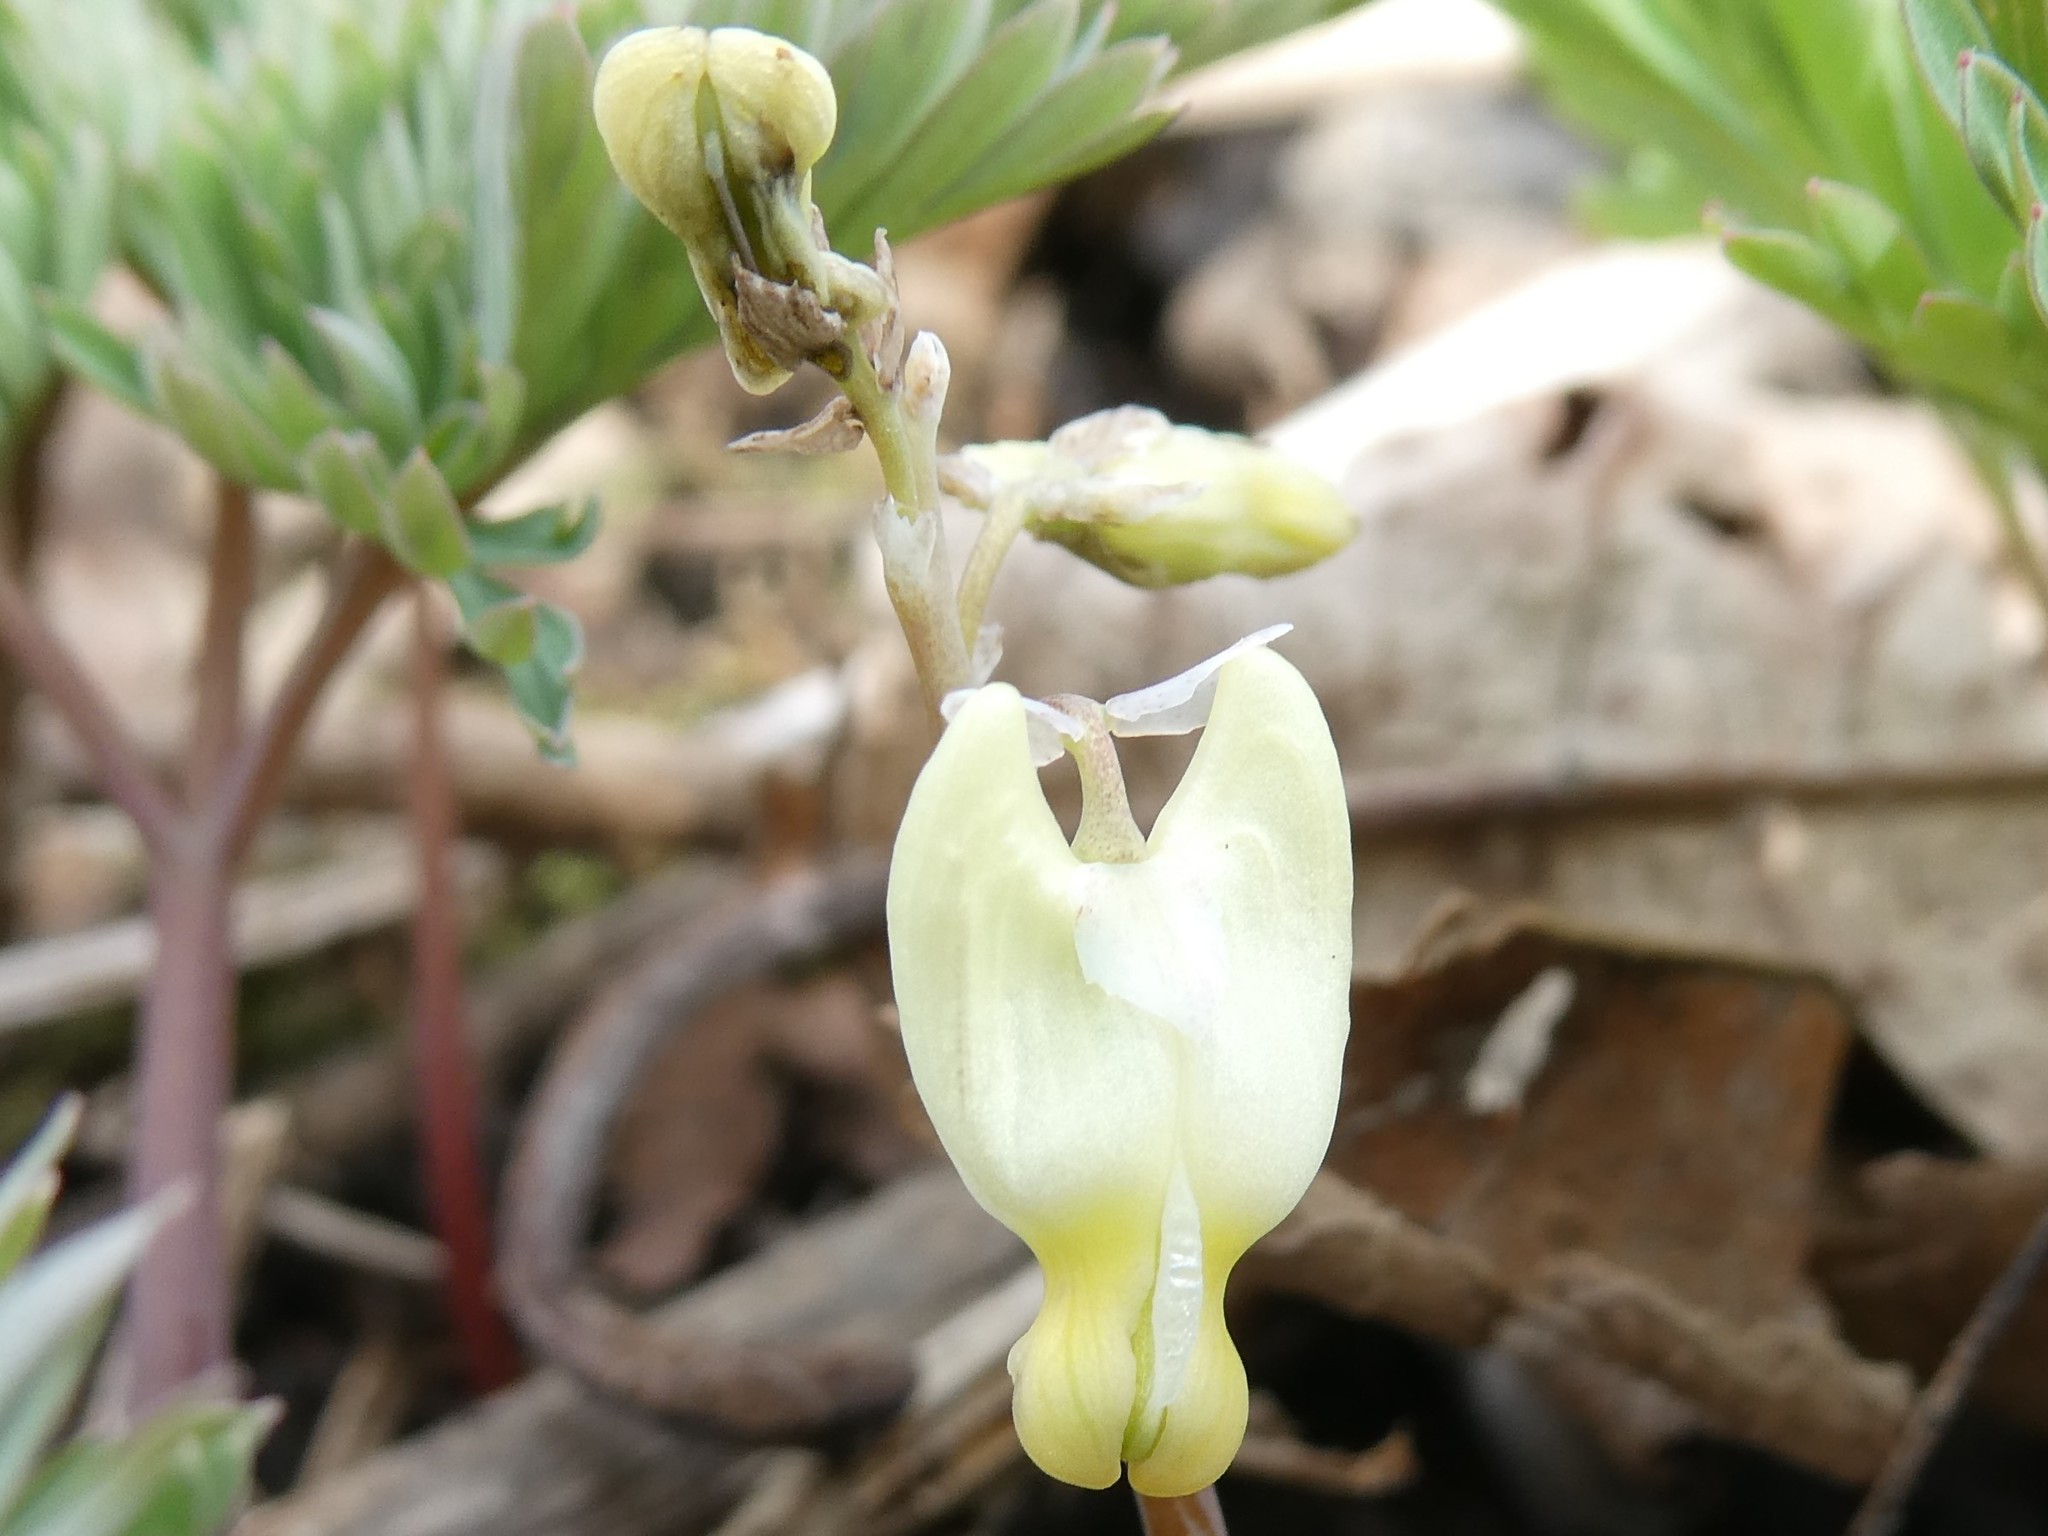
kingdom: Plantae
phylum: Tracheophyta
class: Magnoliopsida
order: Ranunculales
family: Papaveraceae
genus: Dicentra
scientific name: Dicentra cucullaria
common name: Dutchman's breeches
